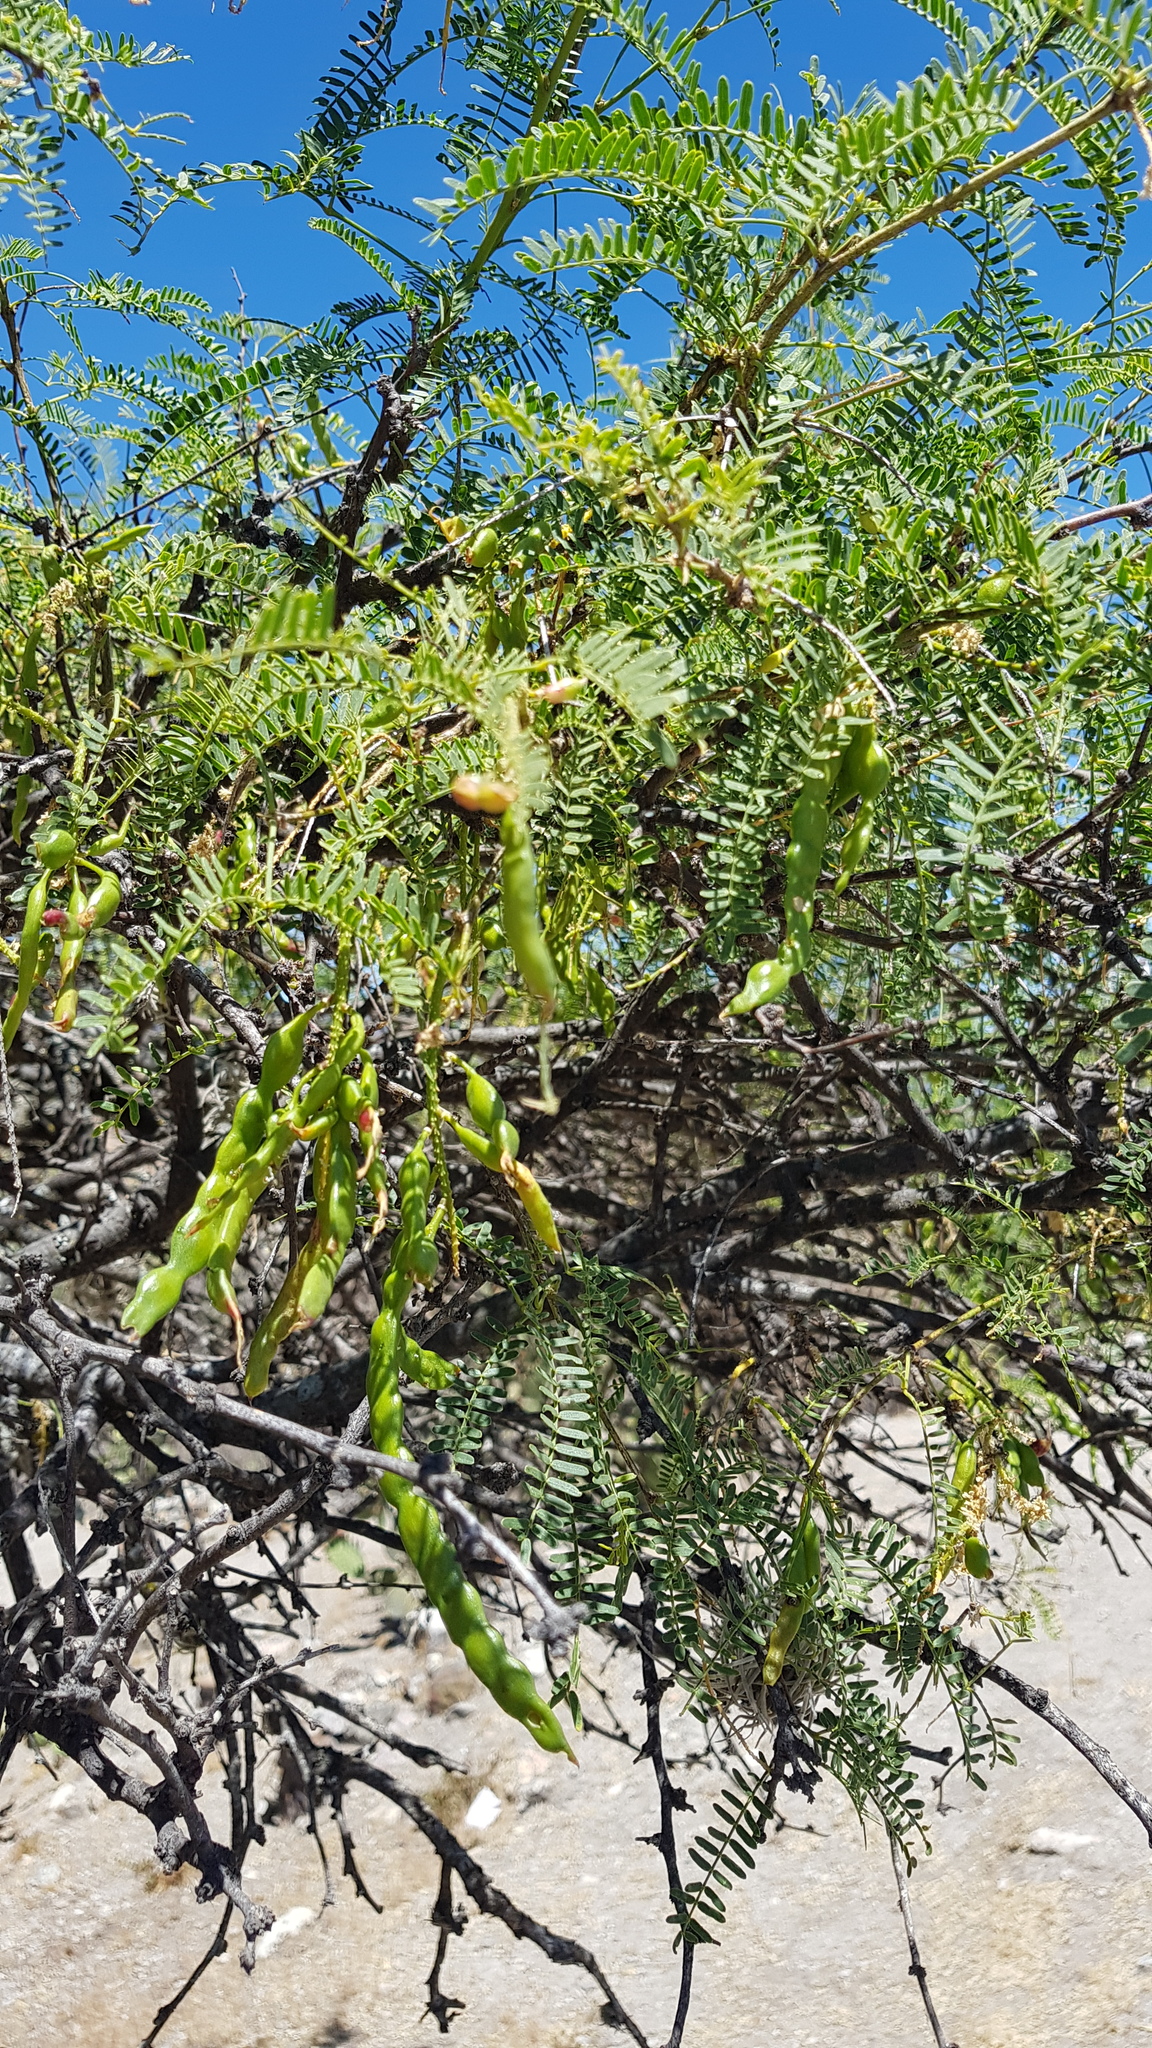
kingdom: Plantae
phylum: Tracheophyta
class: Magnoliopsida
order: Fabales
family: Fabaceae
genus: Prosopis
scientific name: Prosopis laevigata
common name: Smooth mesquite
